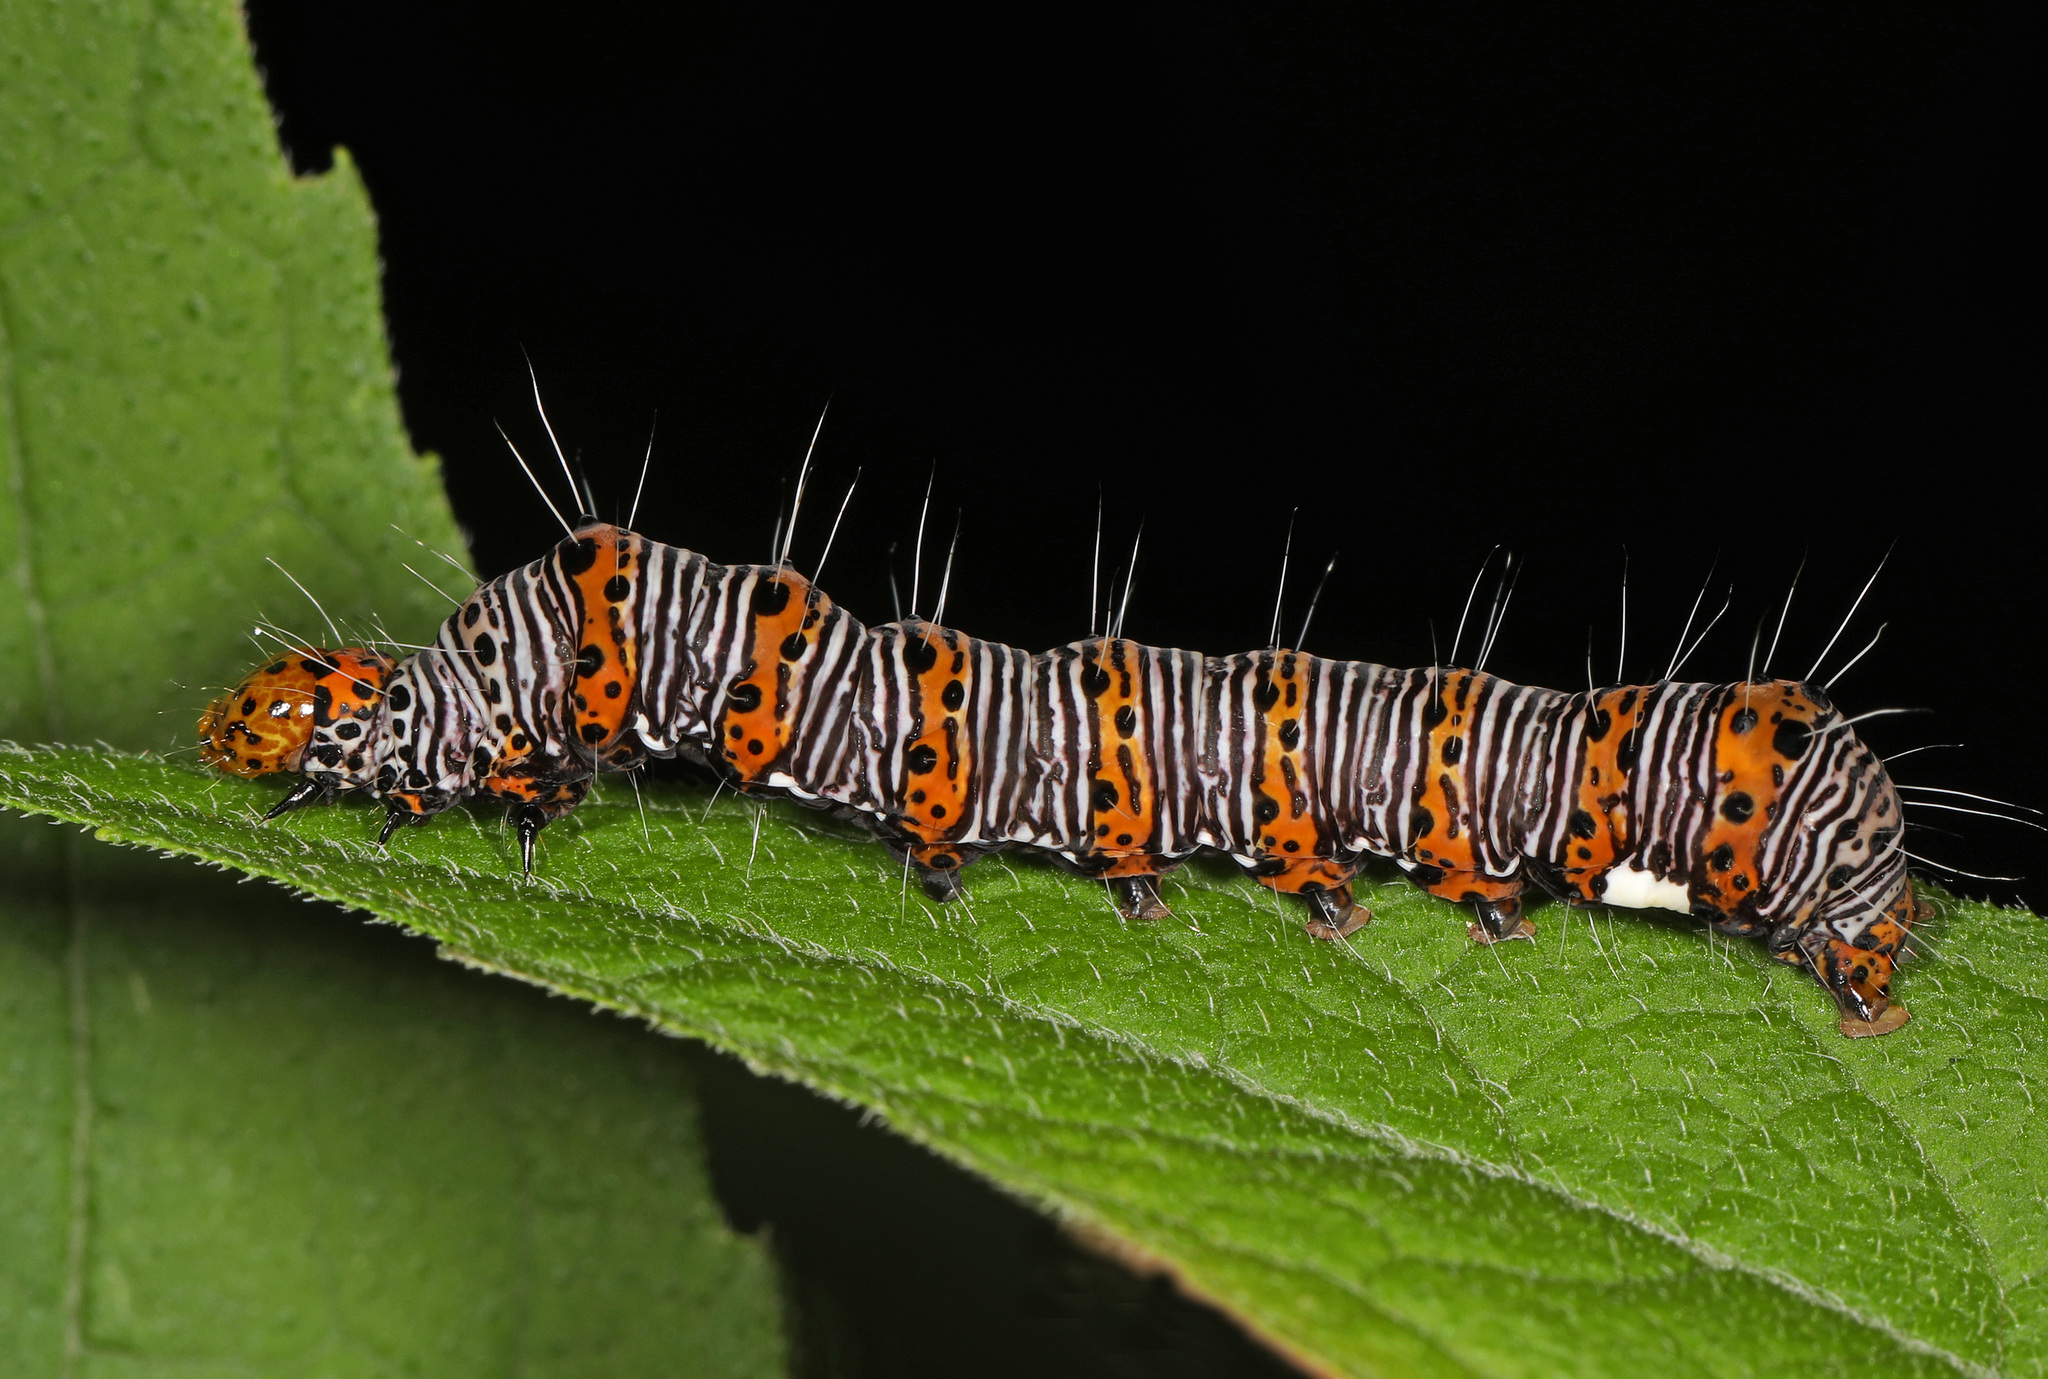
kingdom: Animalia
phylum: Arthropoda
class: Insecta
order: Lepidoptera
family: Noctuidae
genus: Alypia
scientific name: Alypia octomaculata
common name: Eight-spotted forester
